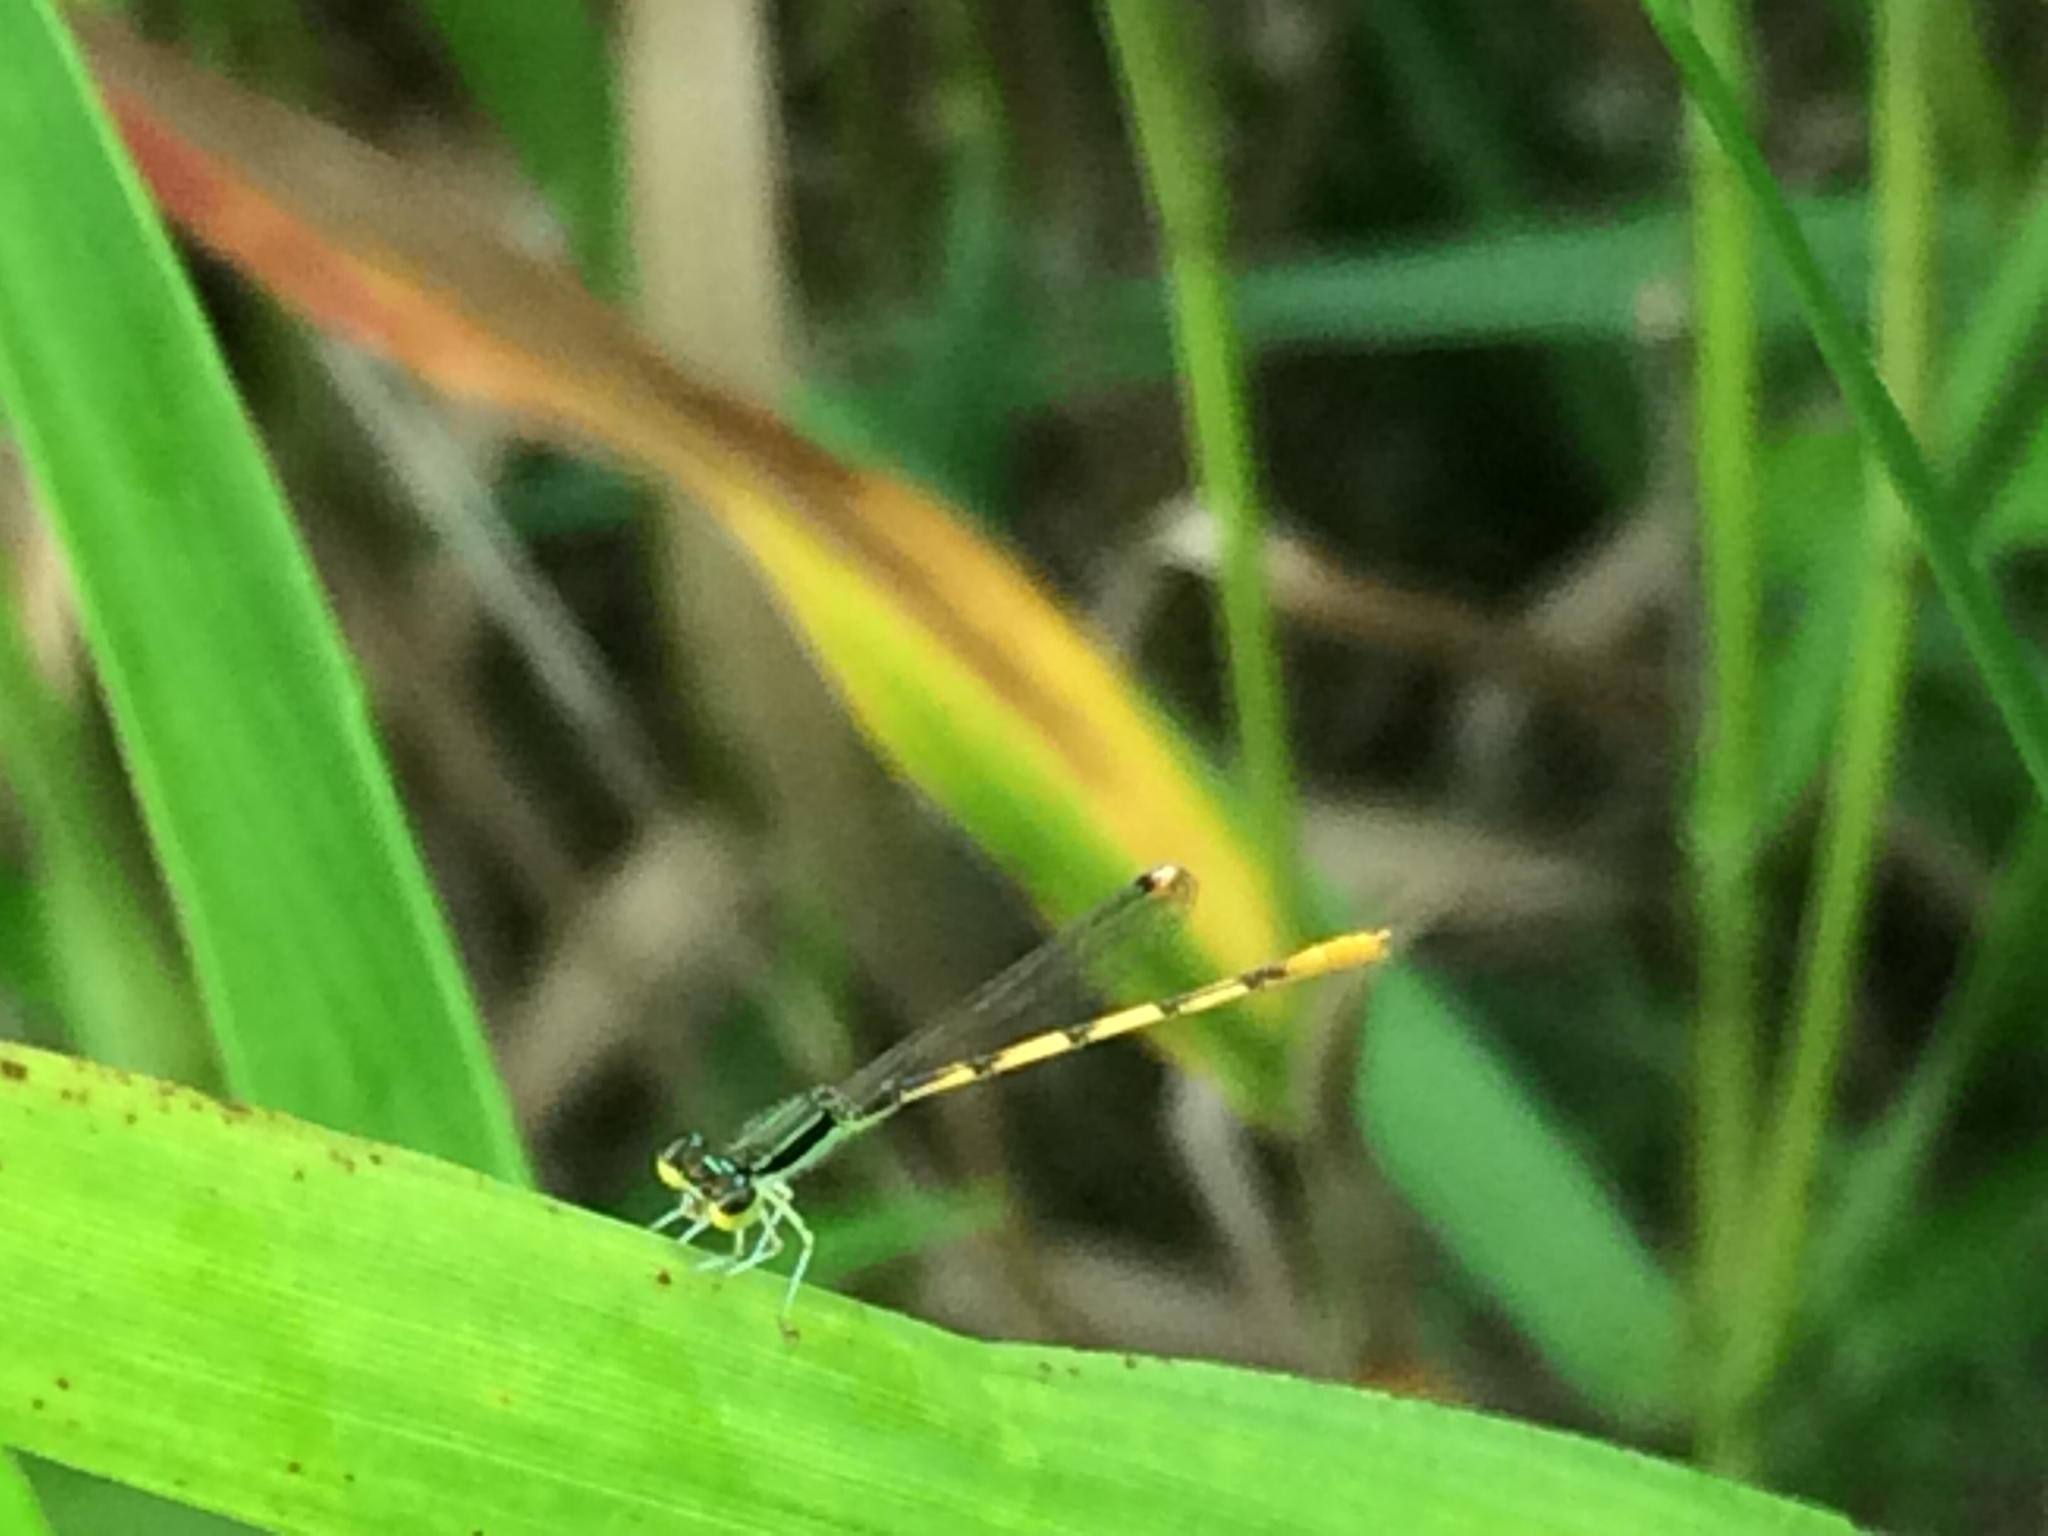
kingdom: Animalia
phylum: Arthropoda
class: Insecta
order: Odonata
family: Coenagrionidae
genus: Ischnura
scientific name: Ischnura hastata
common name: Citrine forktail
